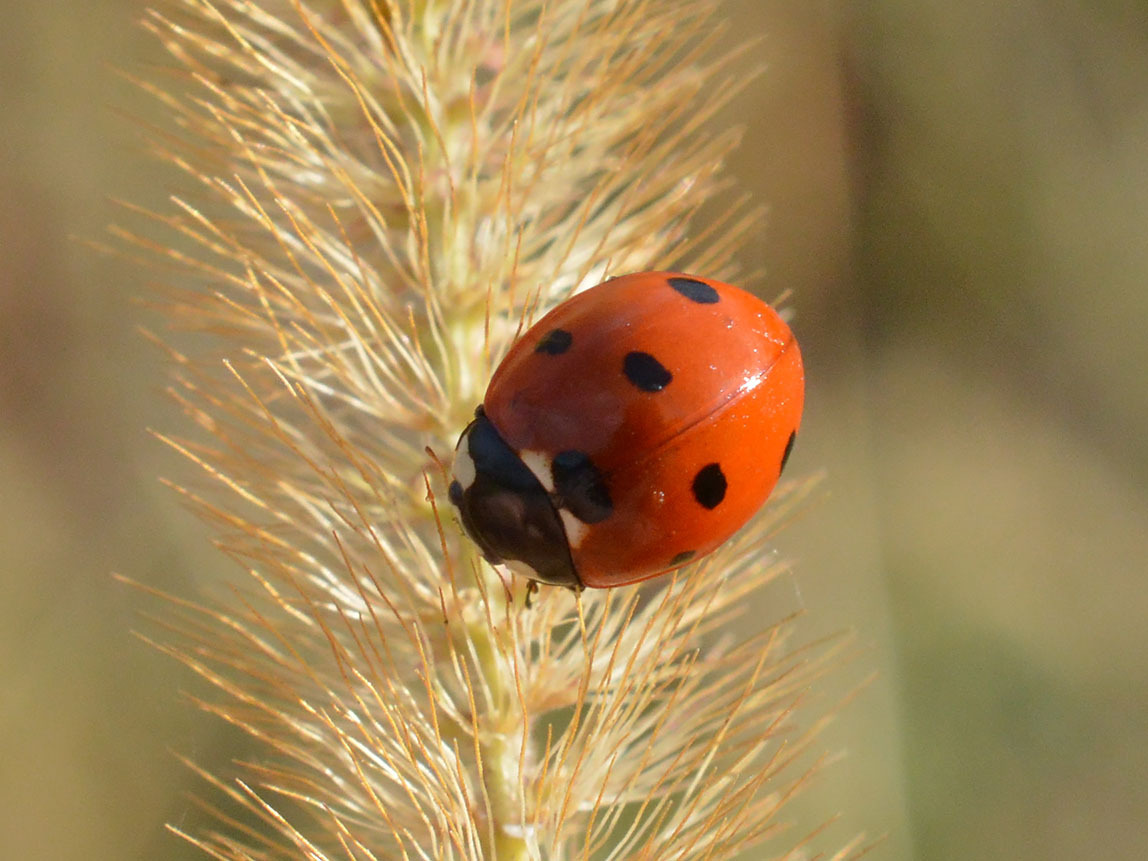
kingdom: Animalia
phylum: Arthropoda
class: Insecta
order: Coleoptera
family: Coccinellidae
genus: Coccinella
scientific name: Coccinella septempunctata
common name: Sevenspotted lady beetle
